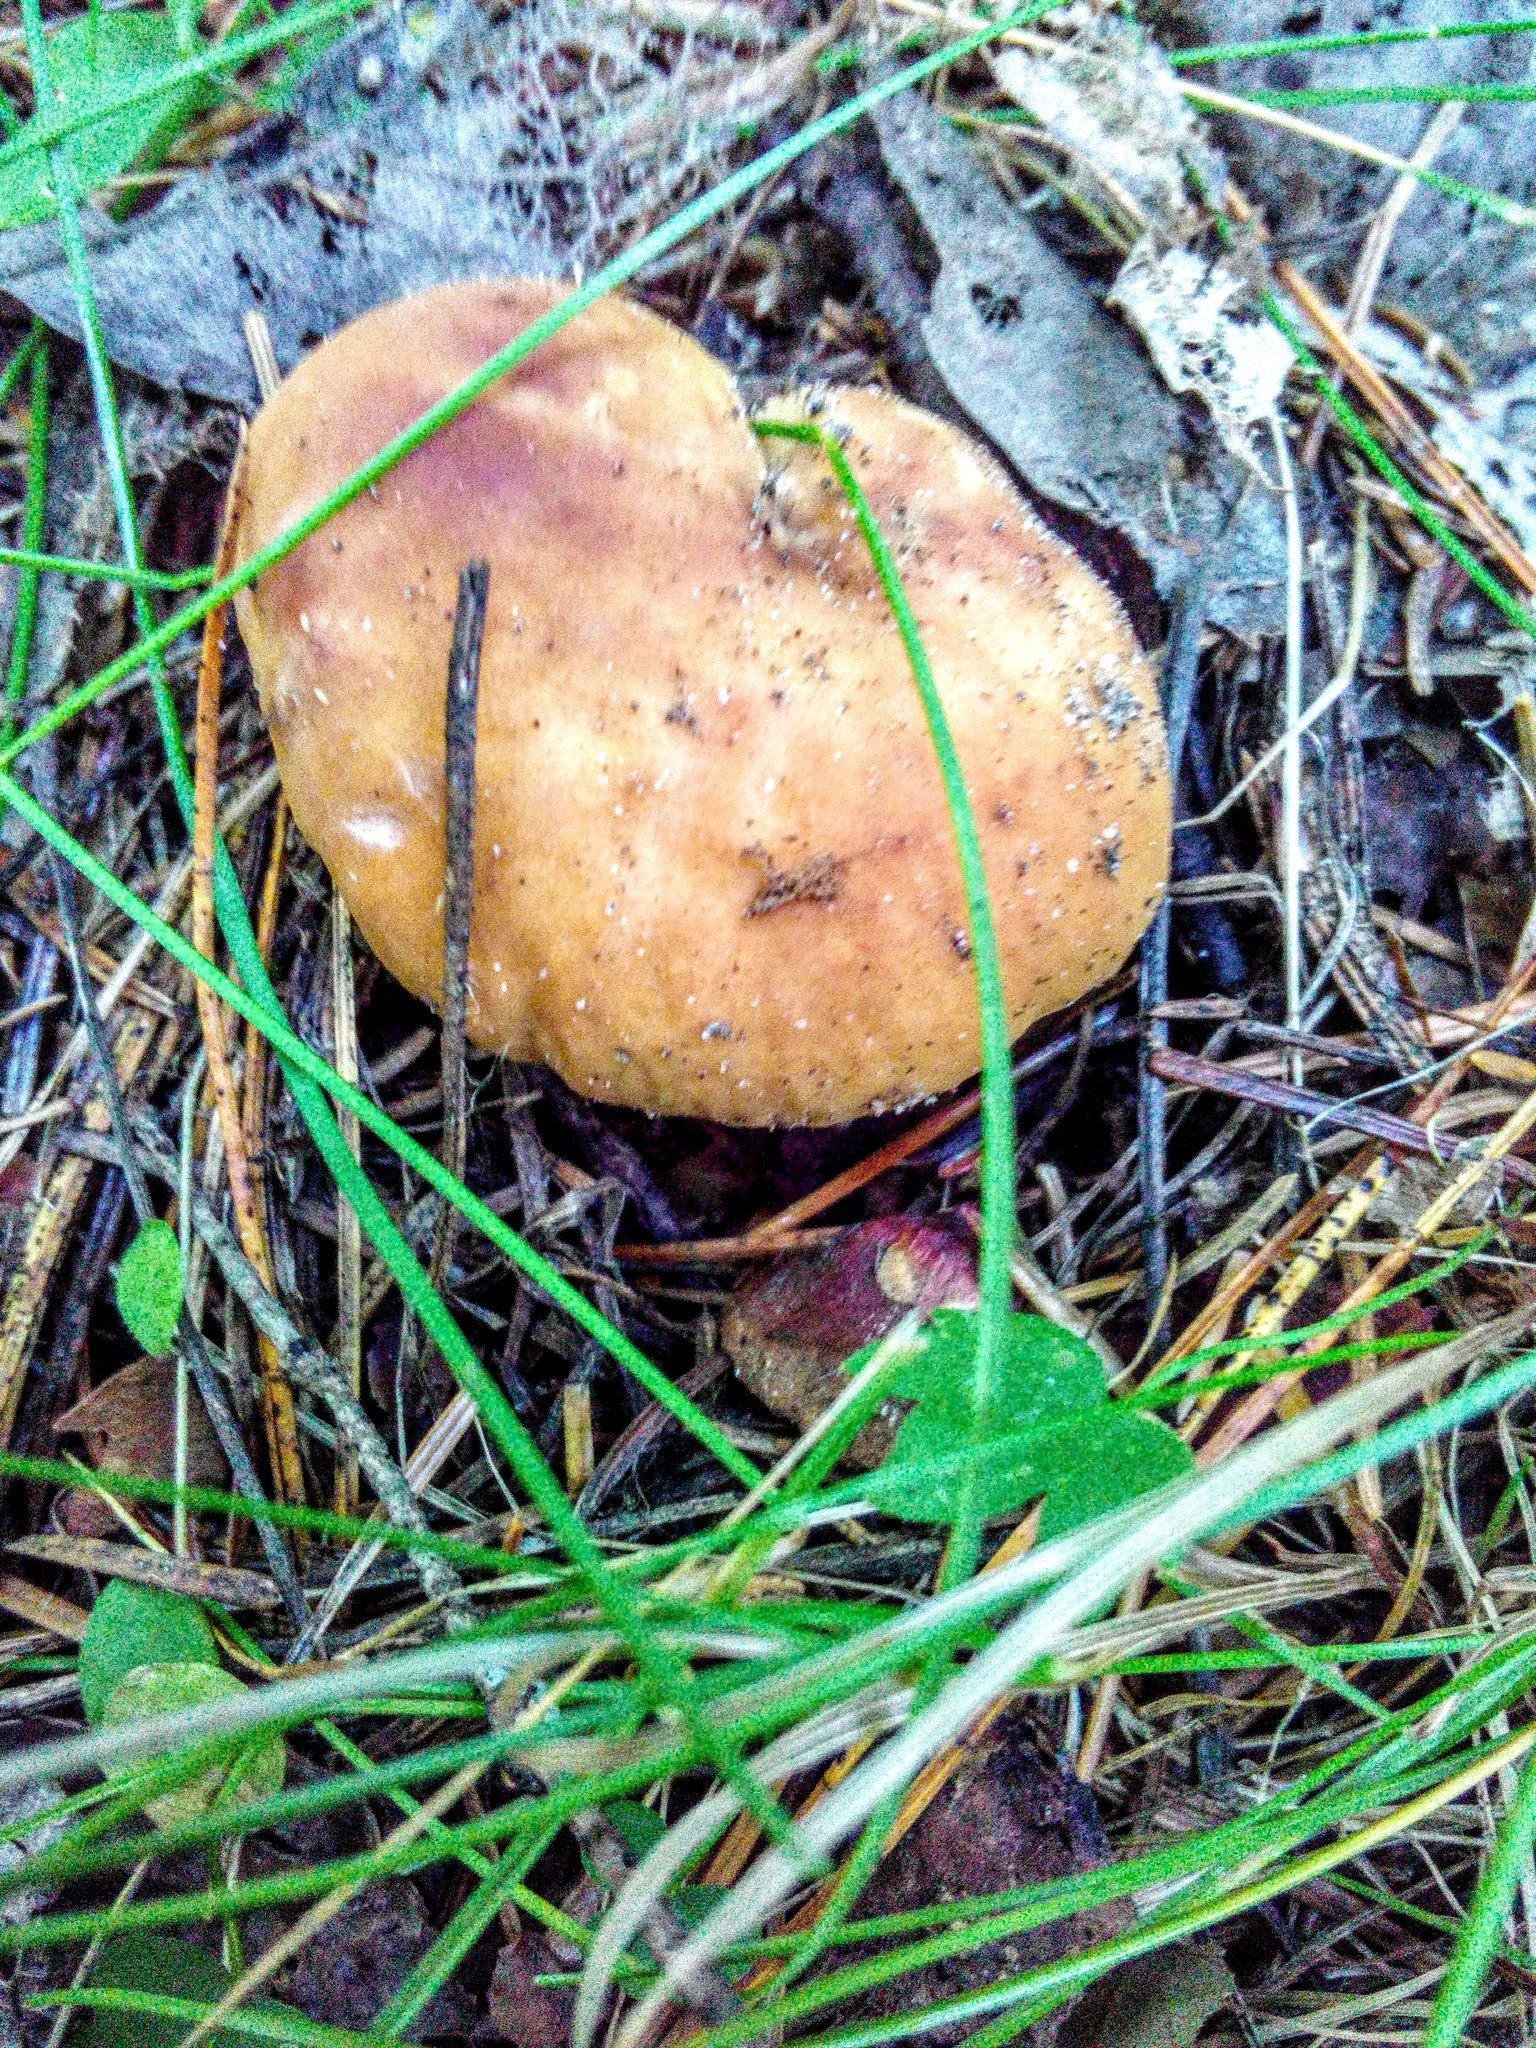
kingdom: Fungi
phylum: Basidiomycota
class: Agaricomycetes
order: Boletales
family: Boletaceae
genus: Boletus
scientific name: Boletus edulis
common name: Cep
